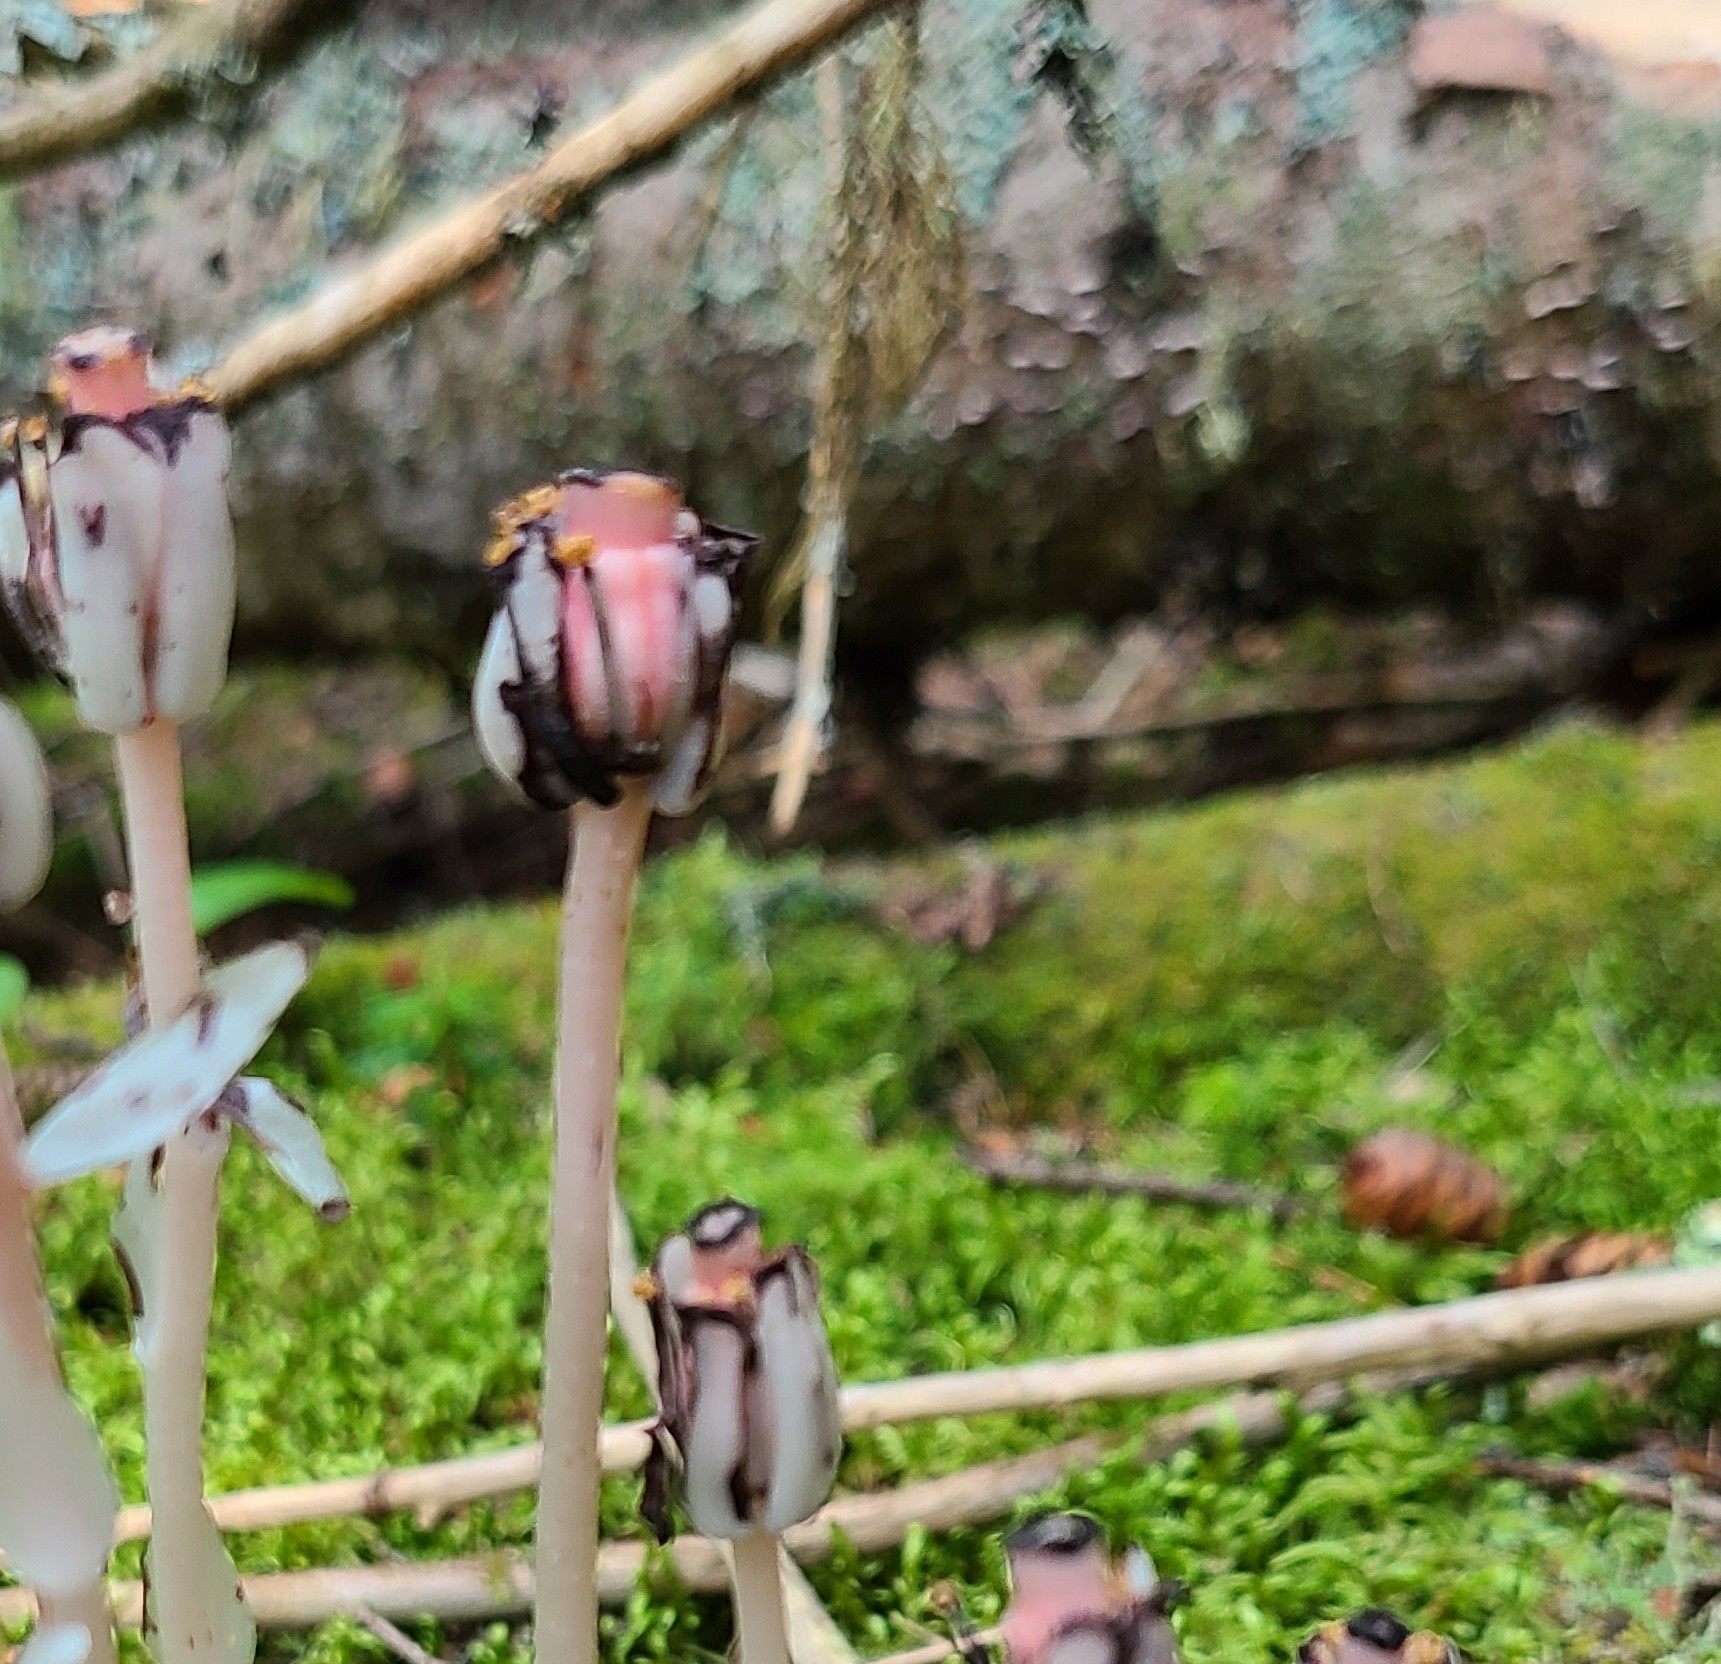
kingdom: Plantae
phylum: Tracheophyta
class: Magnoliopsida
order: Ericales
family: Ericaceae
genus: Monotropa
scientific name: Monotropa uniflora
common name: Convulsion root
